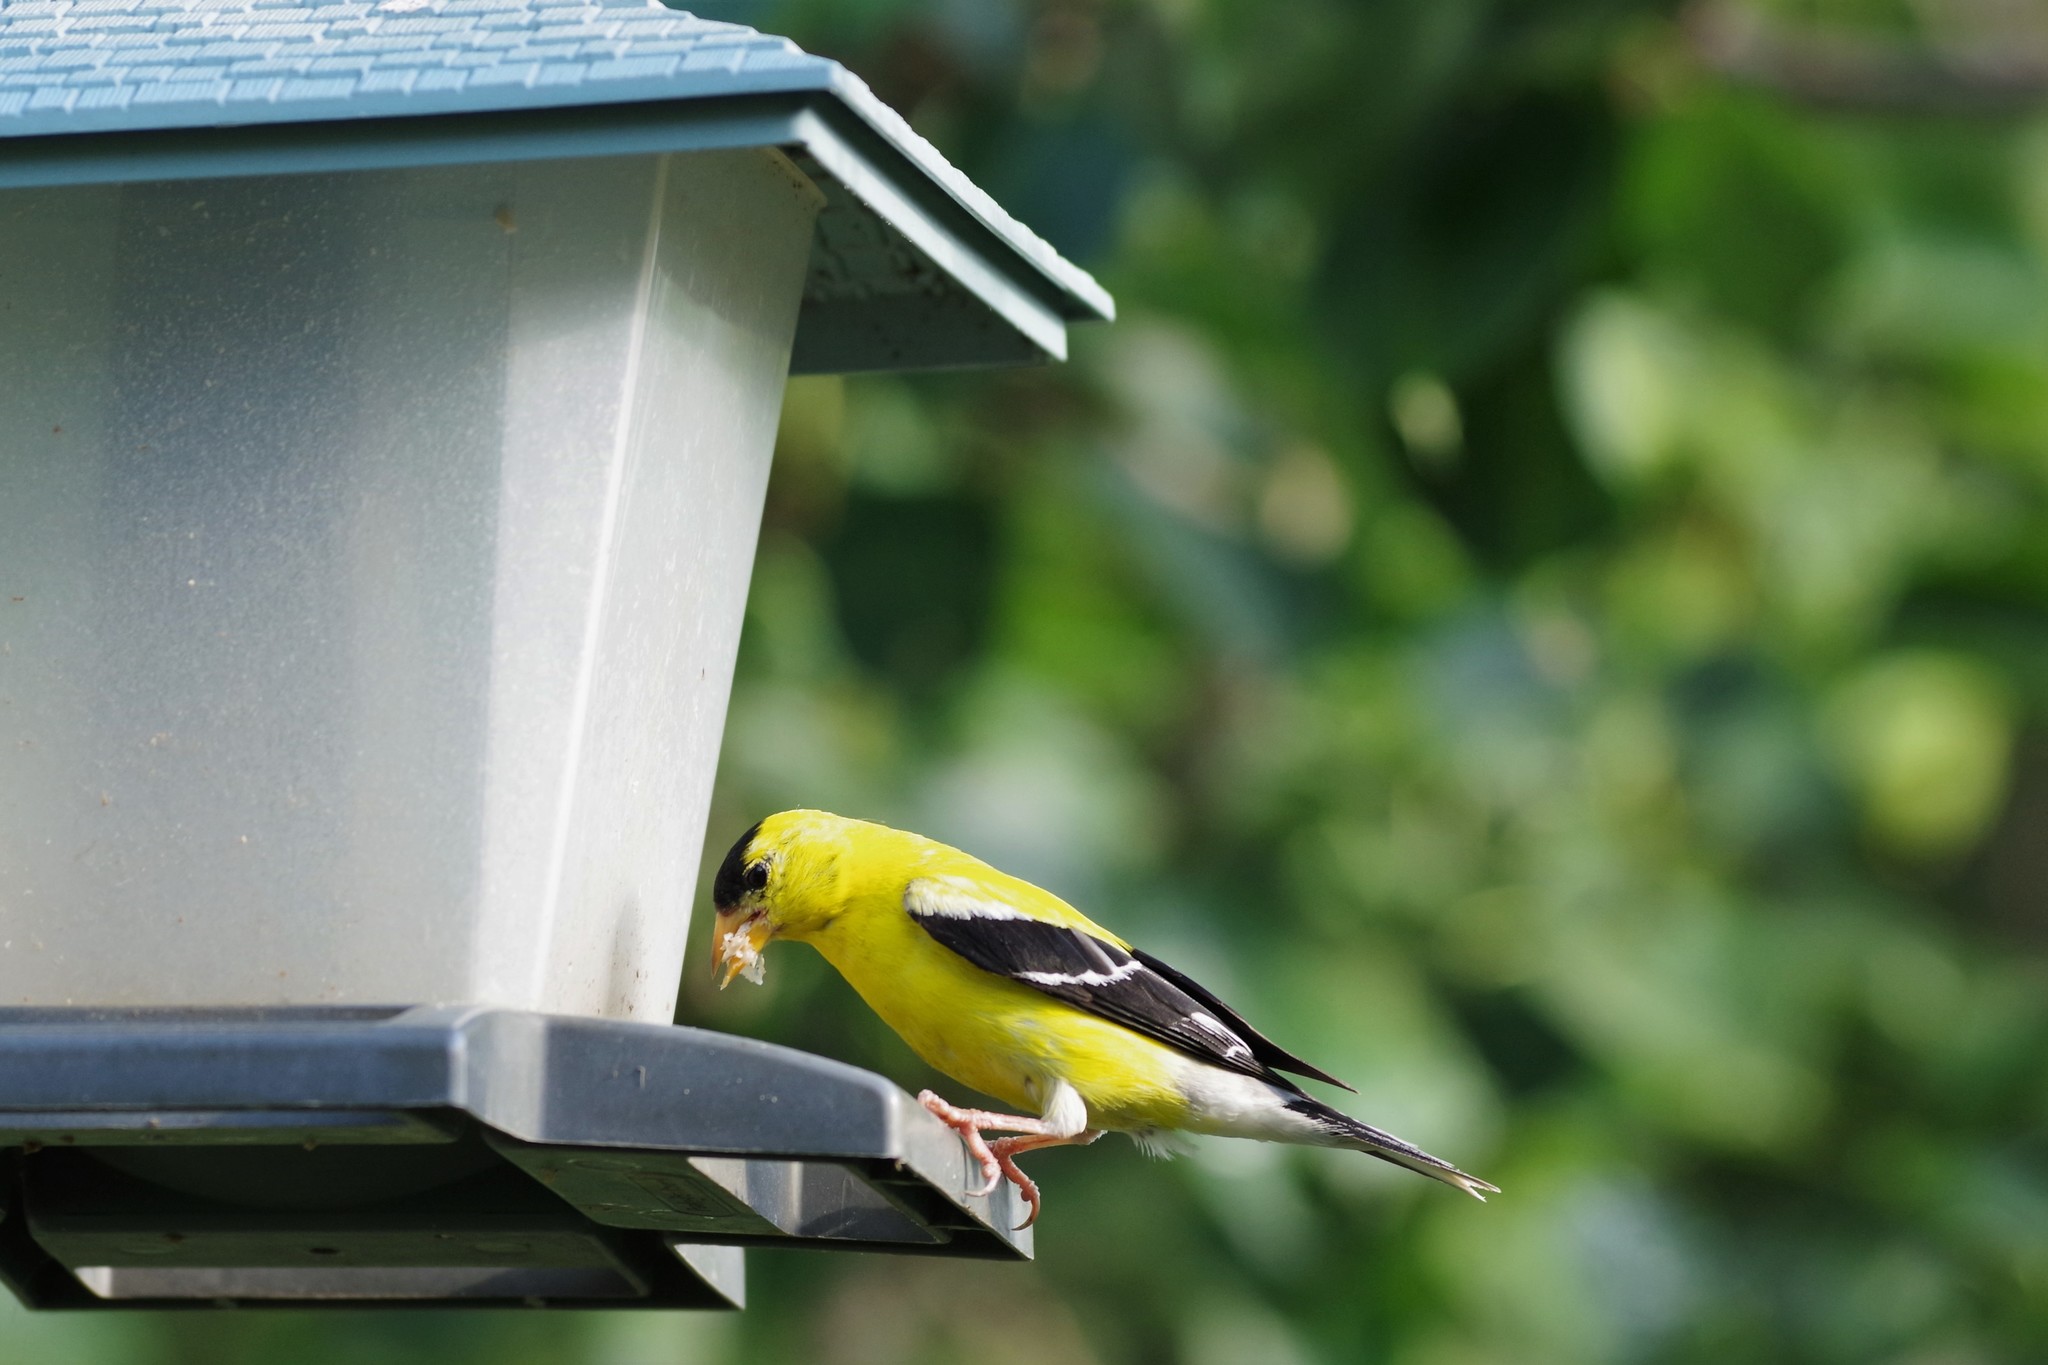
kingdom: Animalia
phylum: Chordata
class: Aves
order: Passeriformes
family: Fringillidae
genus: Spinus
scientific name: Spinus tristis
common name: American goldfinch
